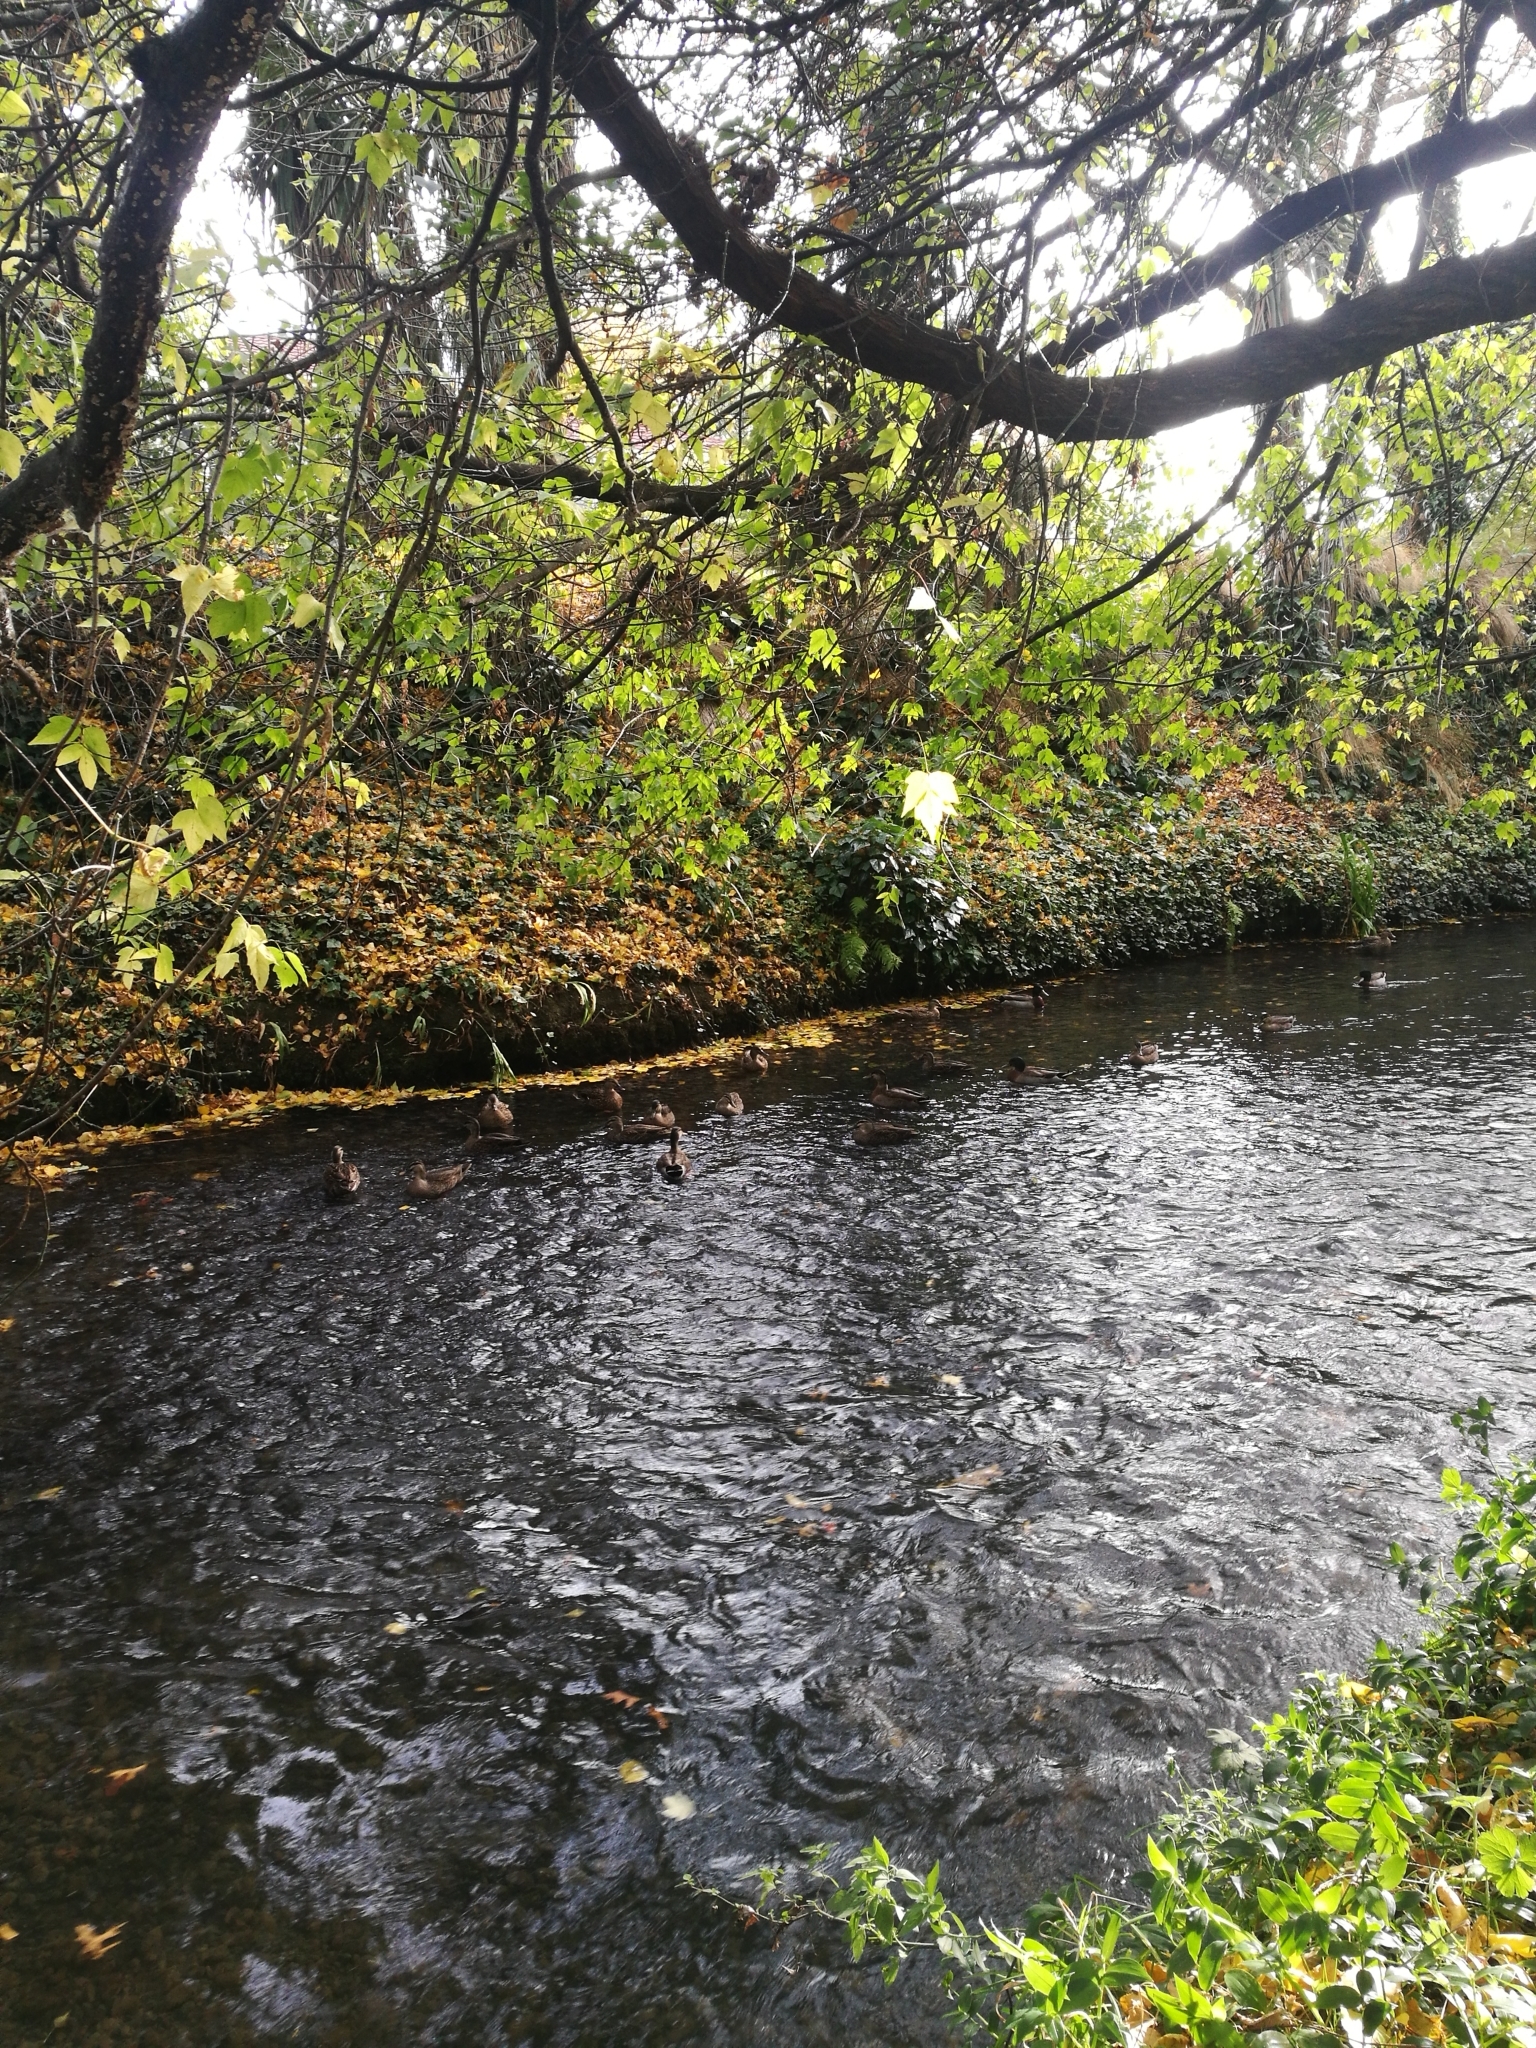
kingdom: Animalia
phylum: Chordata
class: Aves
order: Anseriformes
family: Anatidae
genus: Anas
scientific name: Anas
